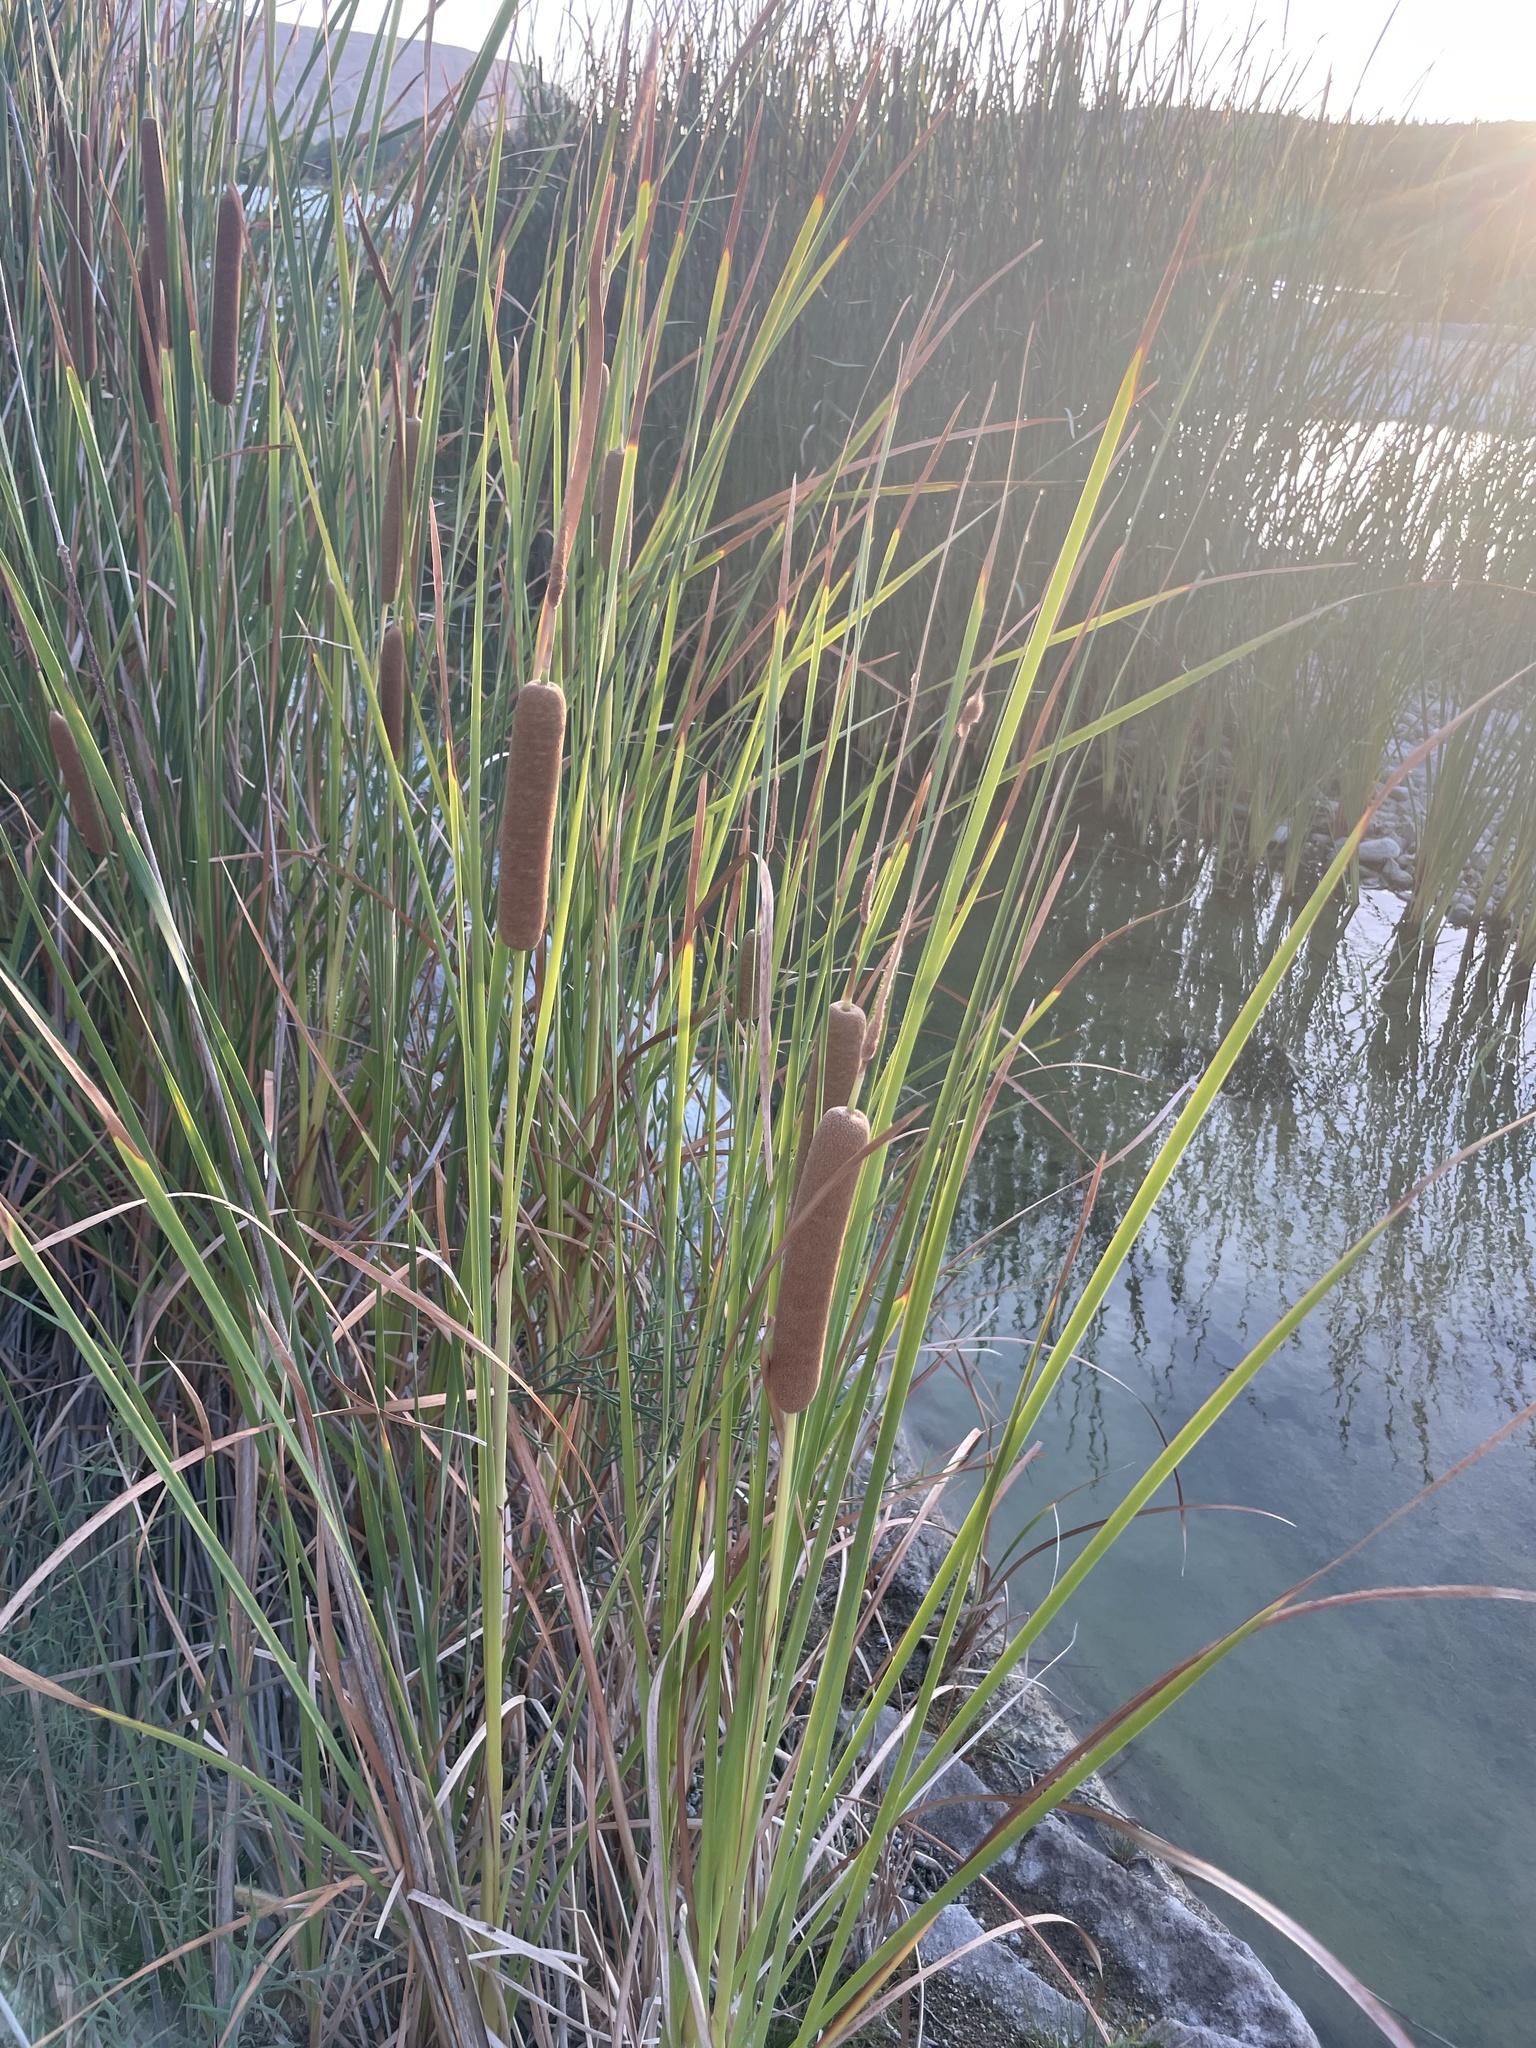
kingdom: Plantae
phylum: Tracheophyta
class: Liliopsida
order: Poales
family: Typhaceae
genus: Typha
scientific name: Typha domingensis
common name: Southern cattail
